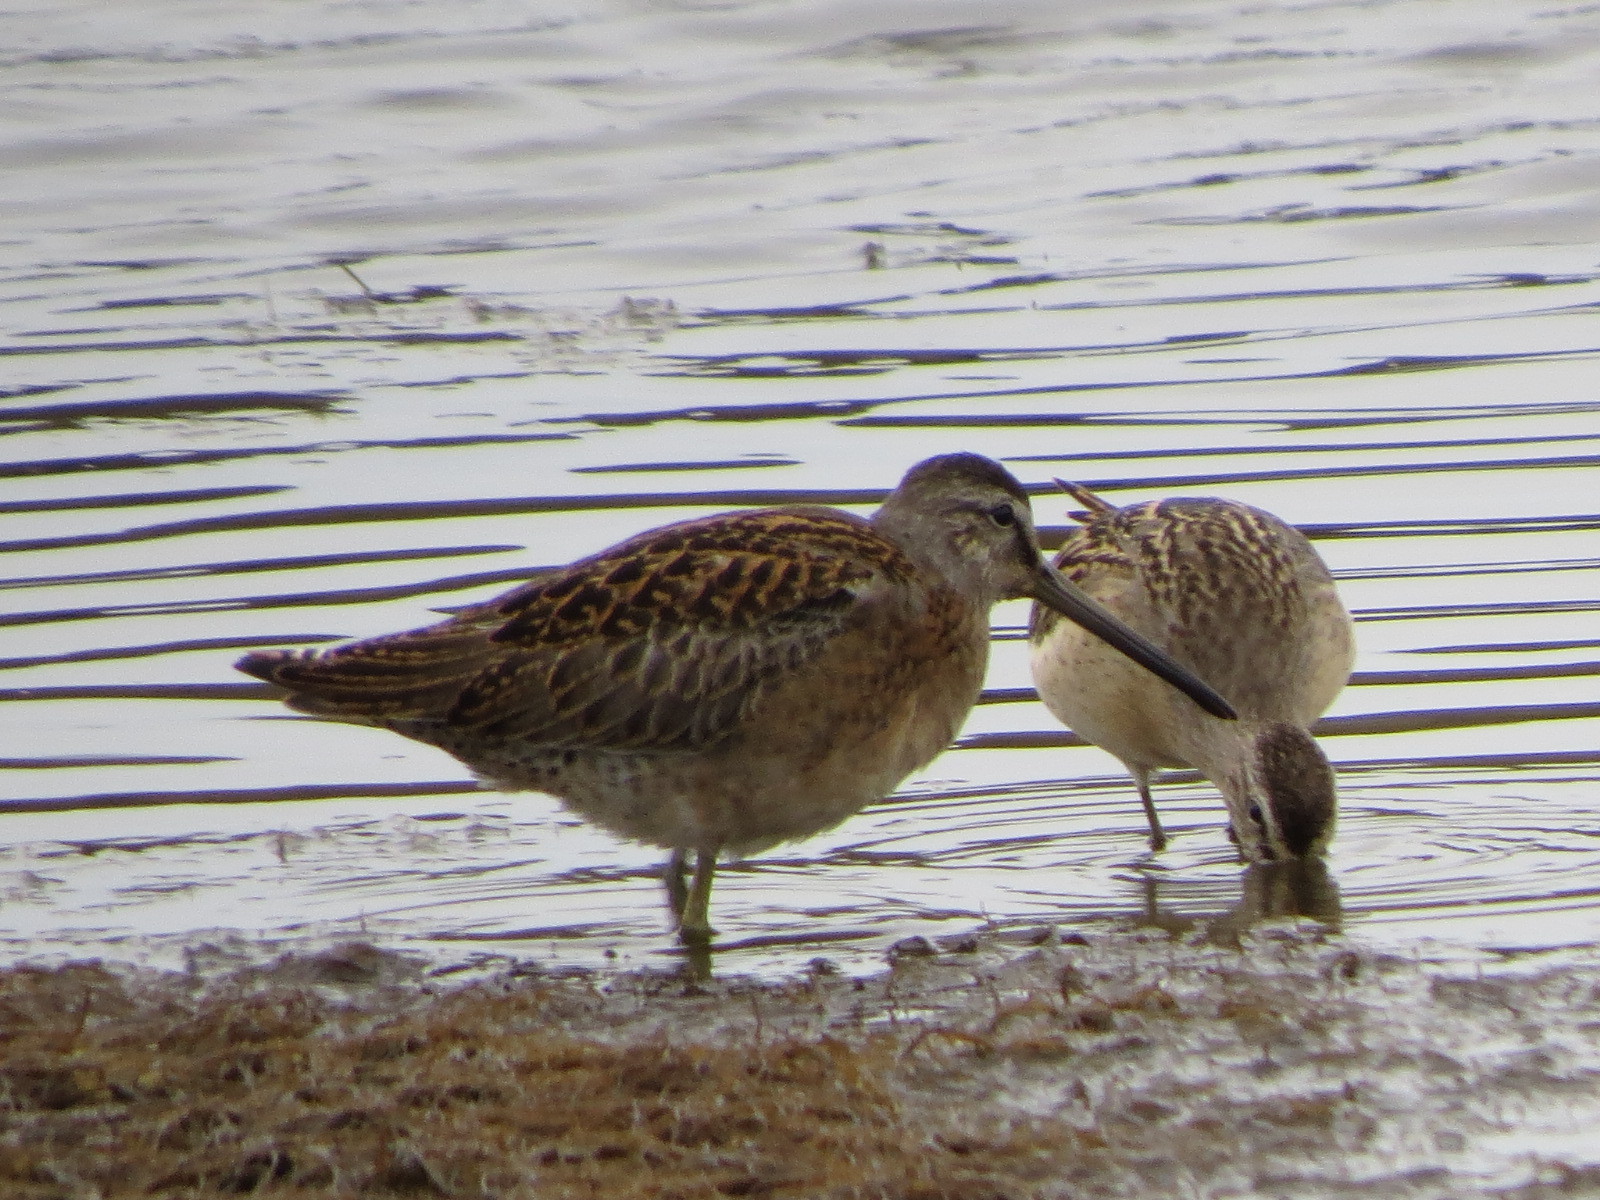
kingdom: Animalia
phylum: Chordata
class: Aves
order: Charadriiformes
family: Scolopacidae
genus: Limnodromus
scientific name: Limnodromus griseus
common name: Short-billed dowitcher
